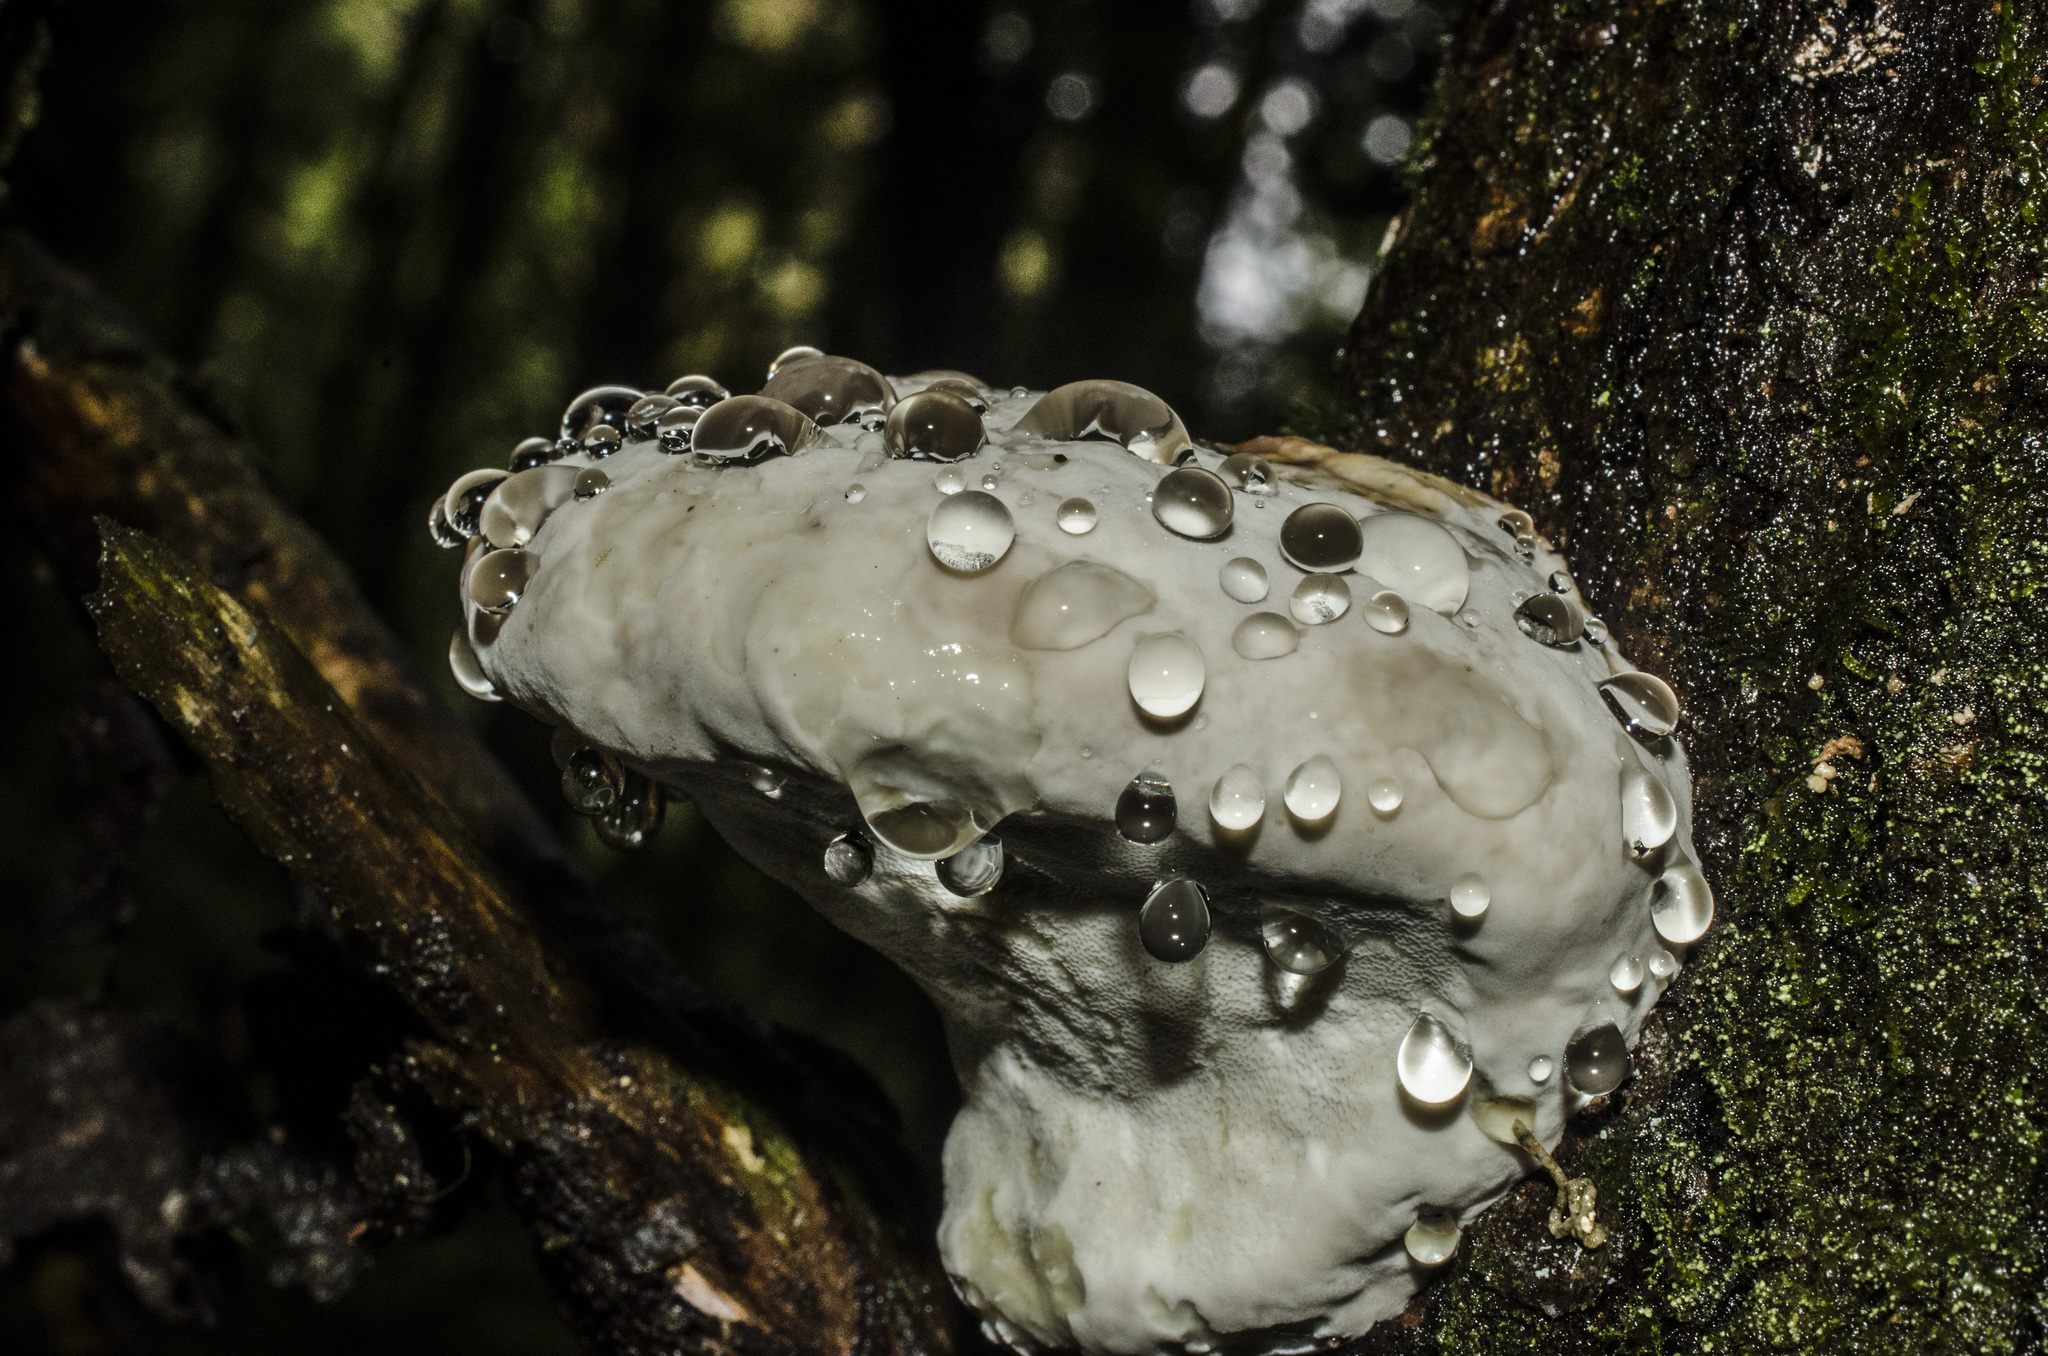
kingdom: Fungi
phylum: Basidiomycota
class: Agaricomycetes
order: Polyporales
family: Fomitopsidaceae
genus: Fomitopsis
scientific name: Fomitopsis mounceae
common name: Northern red belt
